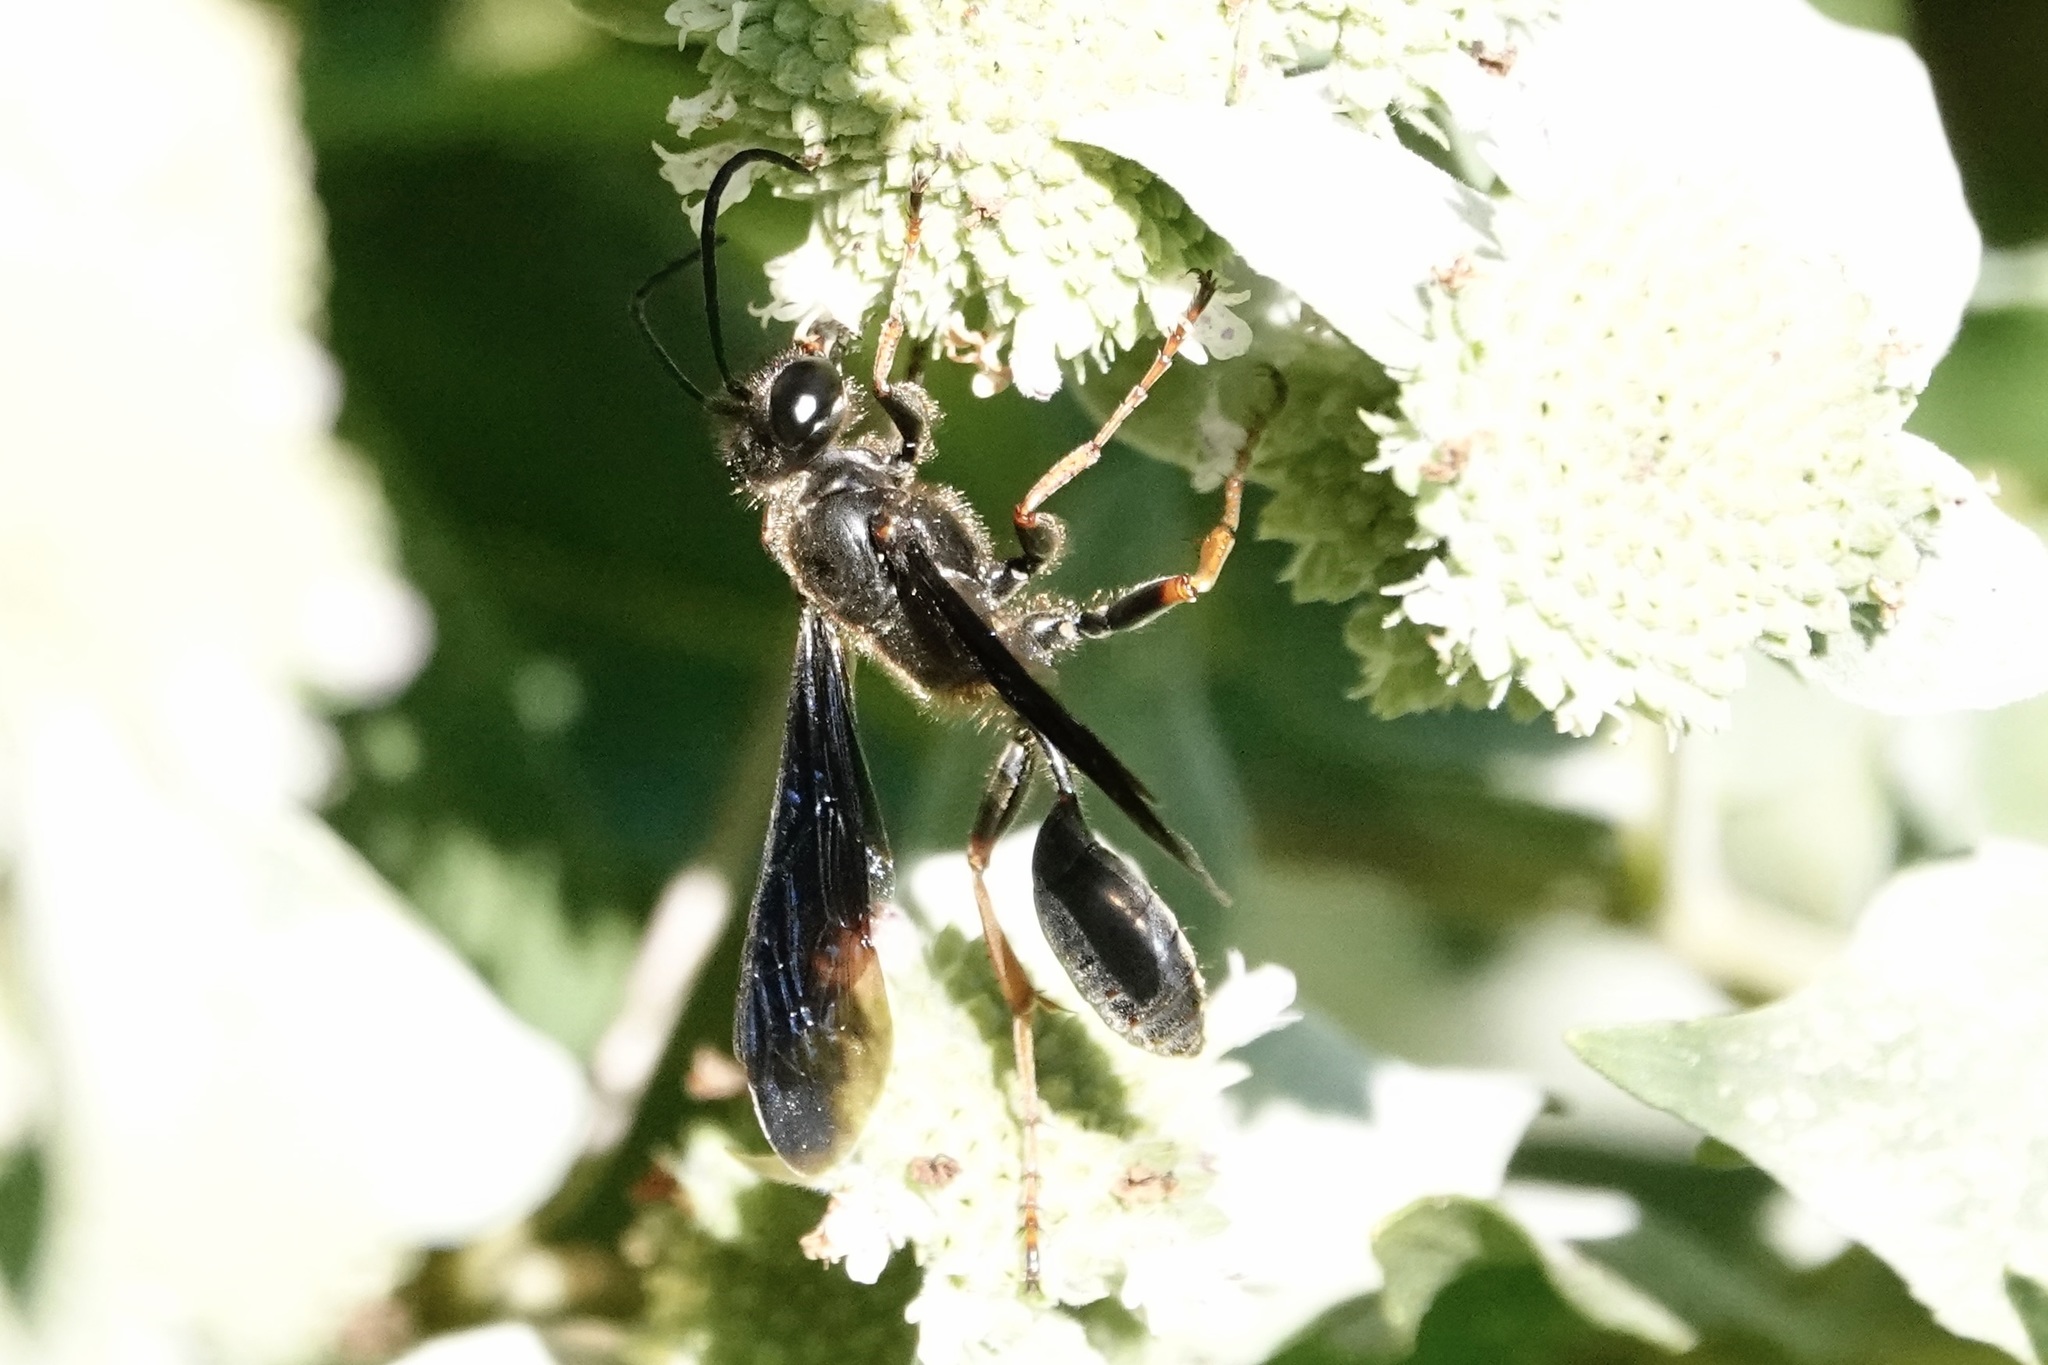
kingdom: Animalia
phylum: Arthropoda
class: Insecta
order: Hymenoptera
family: Sphecidae
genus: Isodontia
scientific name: Isodontia auripes
